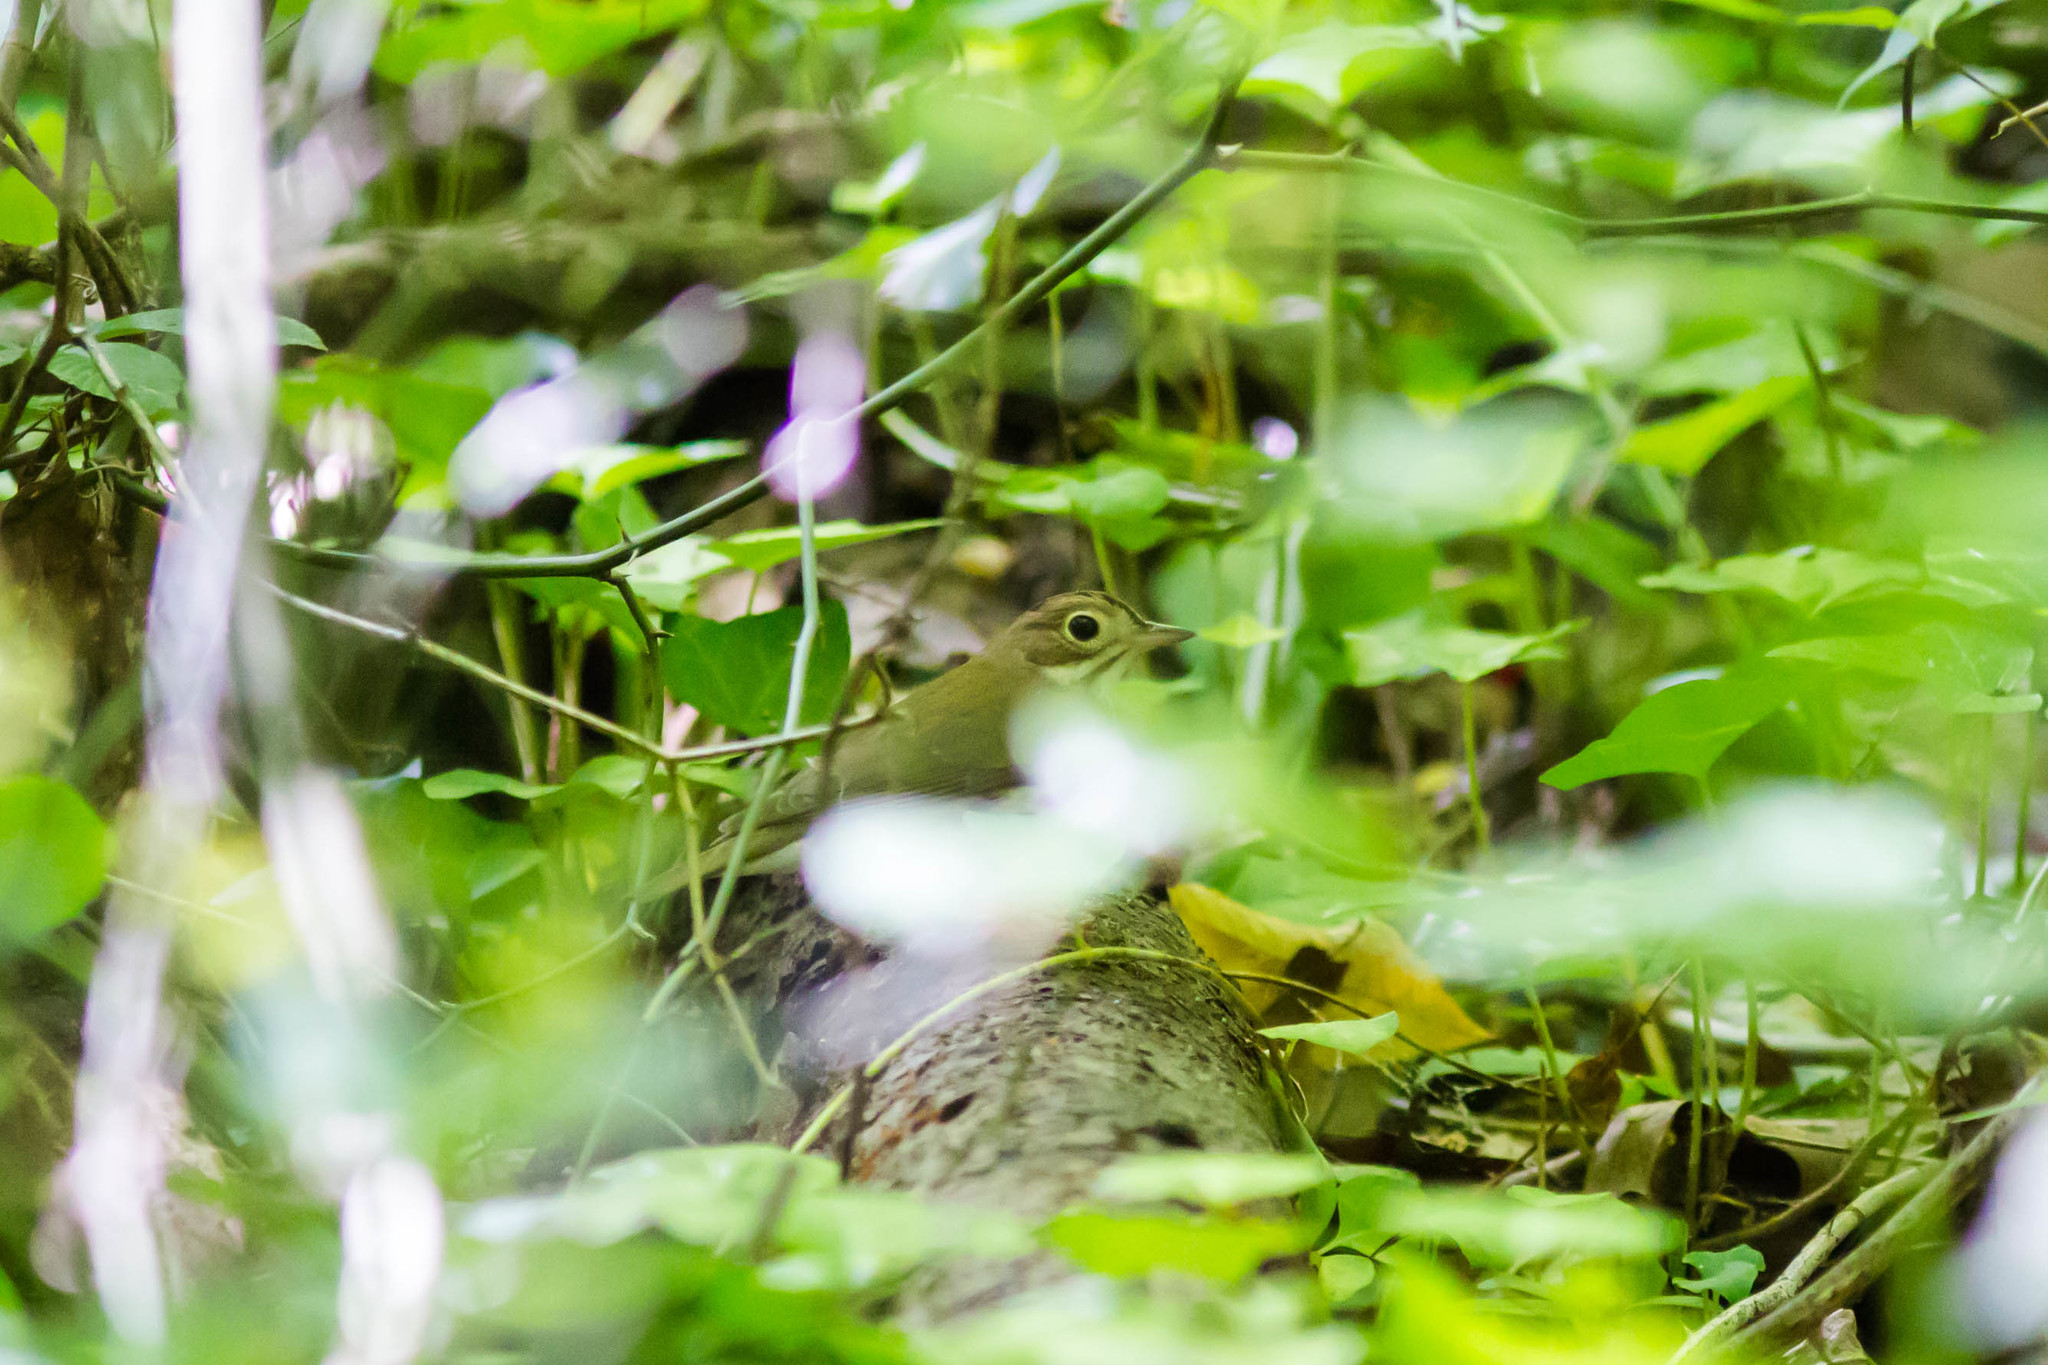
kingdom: Animalia
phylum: Chordata
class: Aves
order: Passeriformes
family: Parulidae
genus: Seiurus
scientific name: Seiurus aurocapilla
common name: Ovenbird
